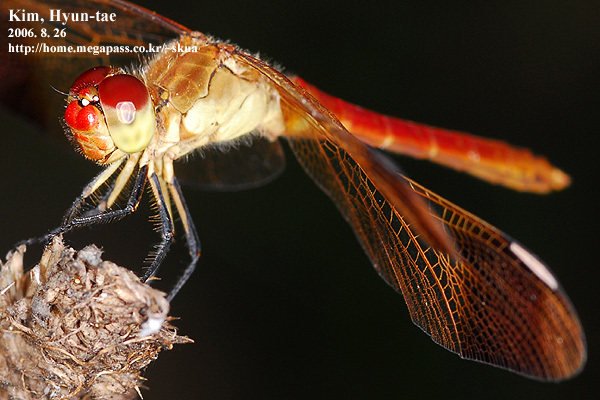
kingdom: Animalia
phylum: Arthropoda
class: Insecta
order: Odonata
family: Libellulidae
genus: Sympetrum
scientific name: Sympetrum pedemontanum
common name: Banded darter
